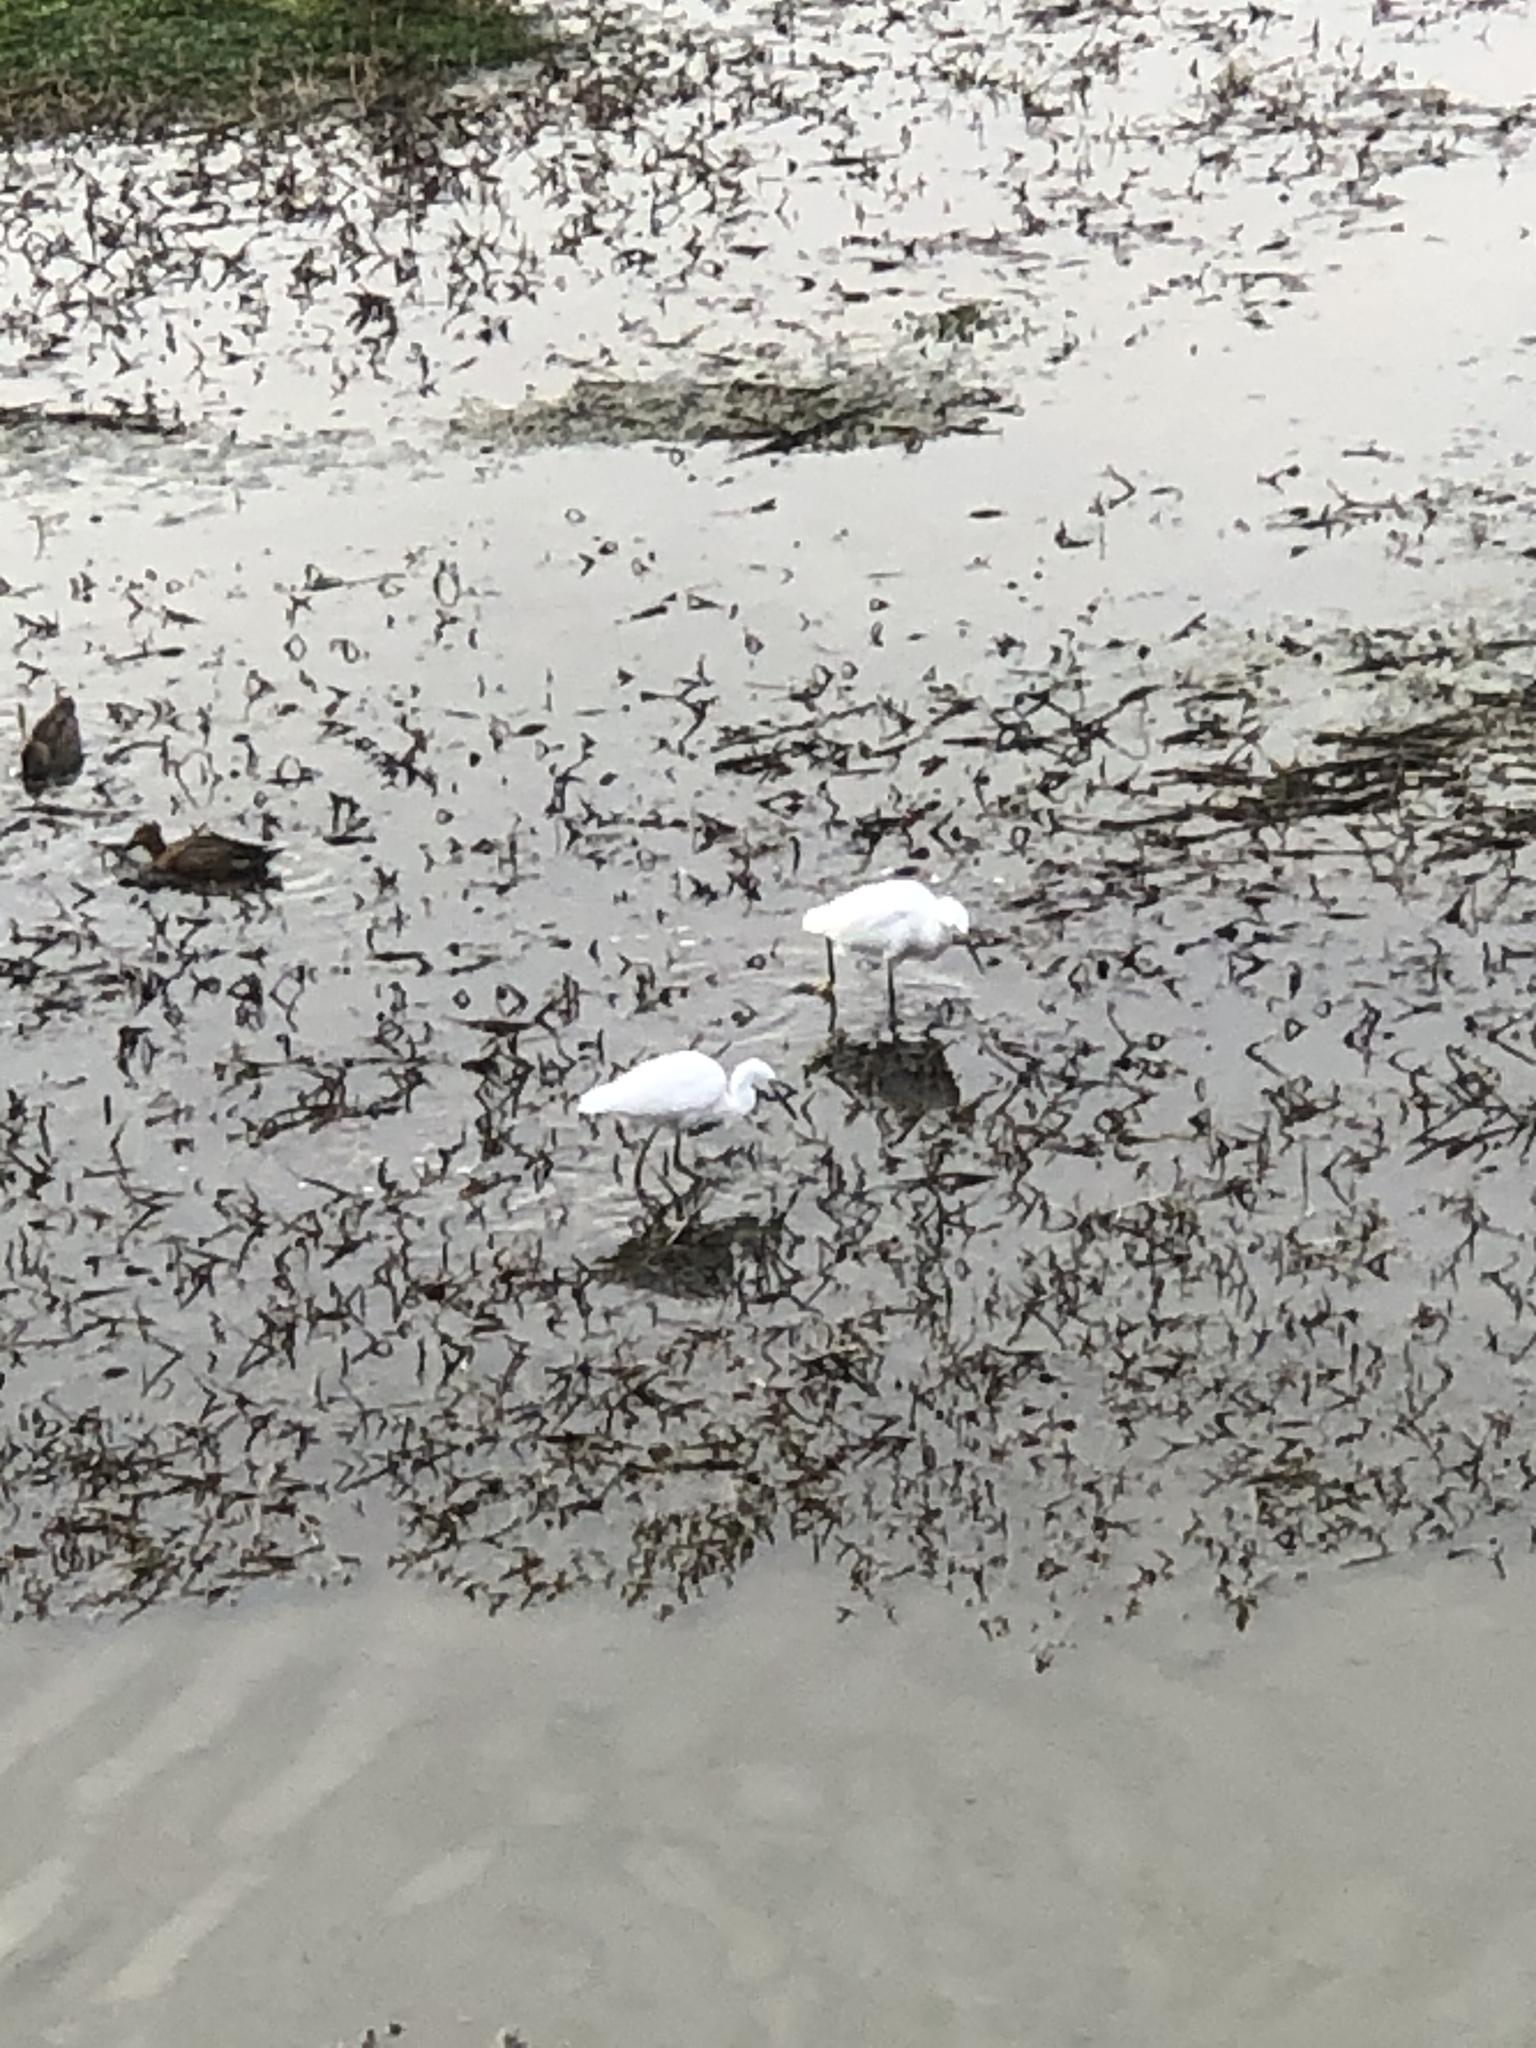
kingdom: Animalia
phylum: Chordata
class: Aves
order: Pelecaniformes
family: Ardeidae
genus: Egretta
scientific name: Egretta thula
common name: Snowy egret
